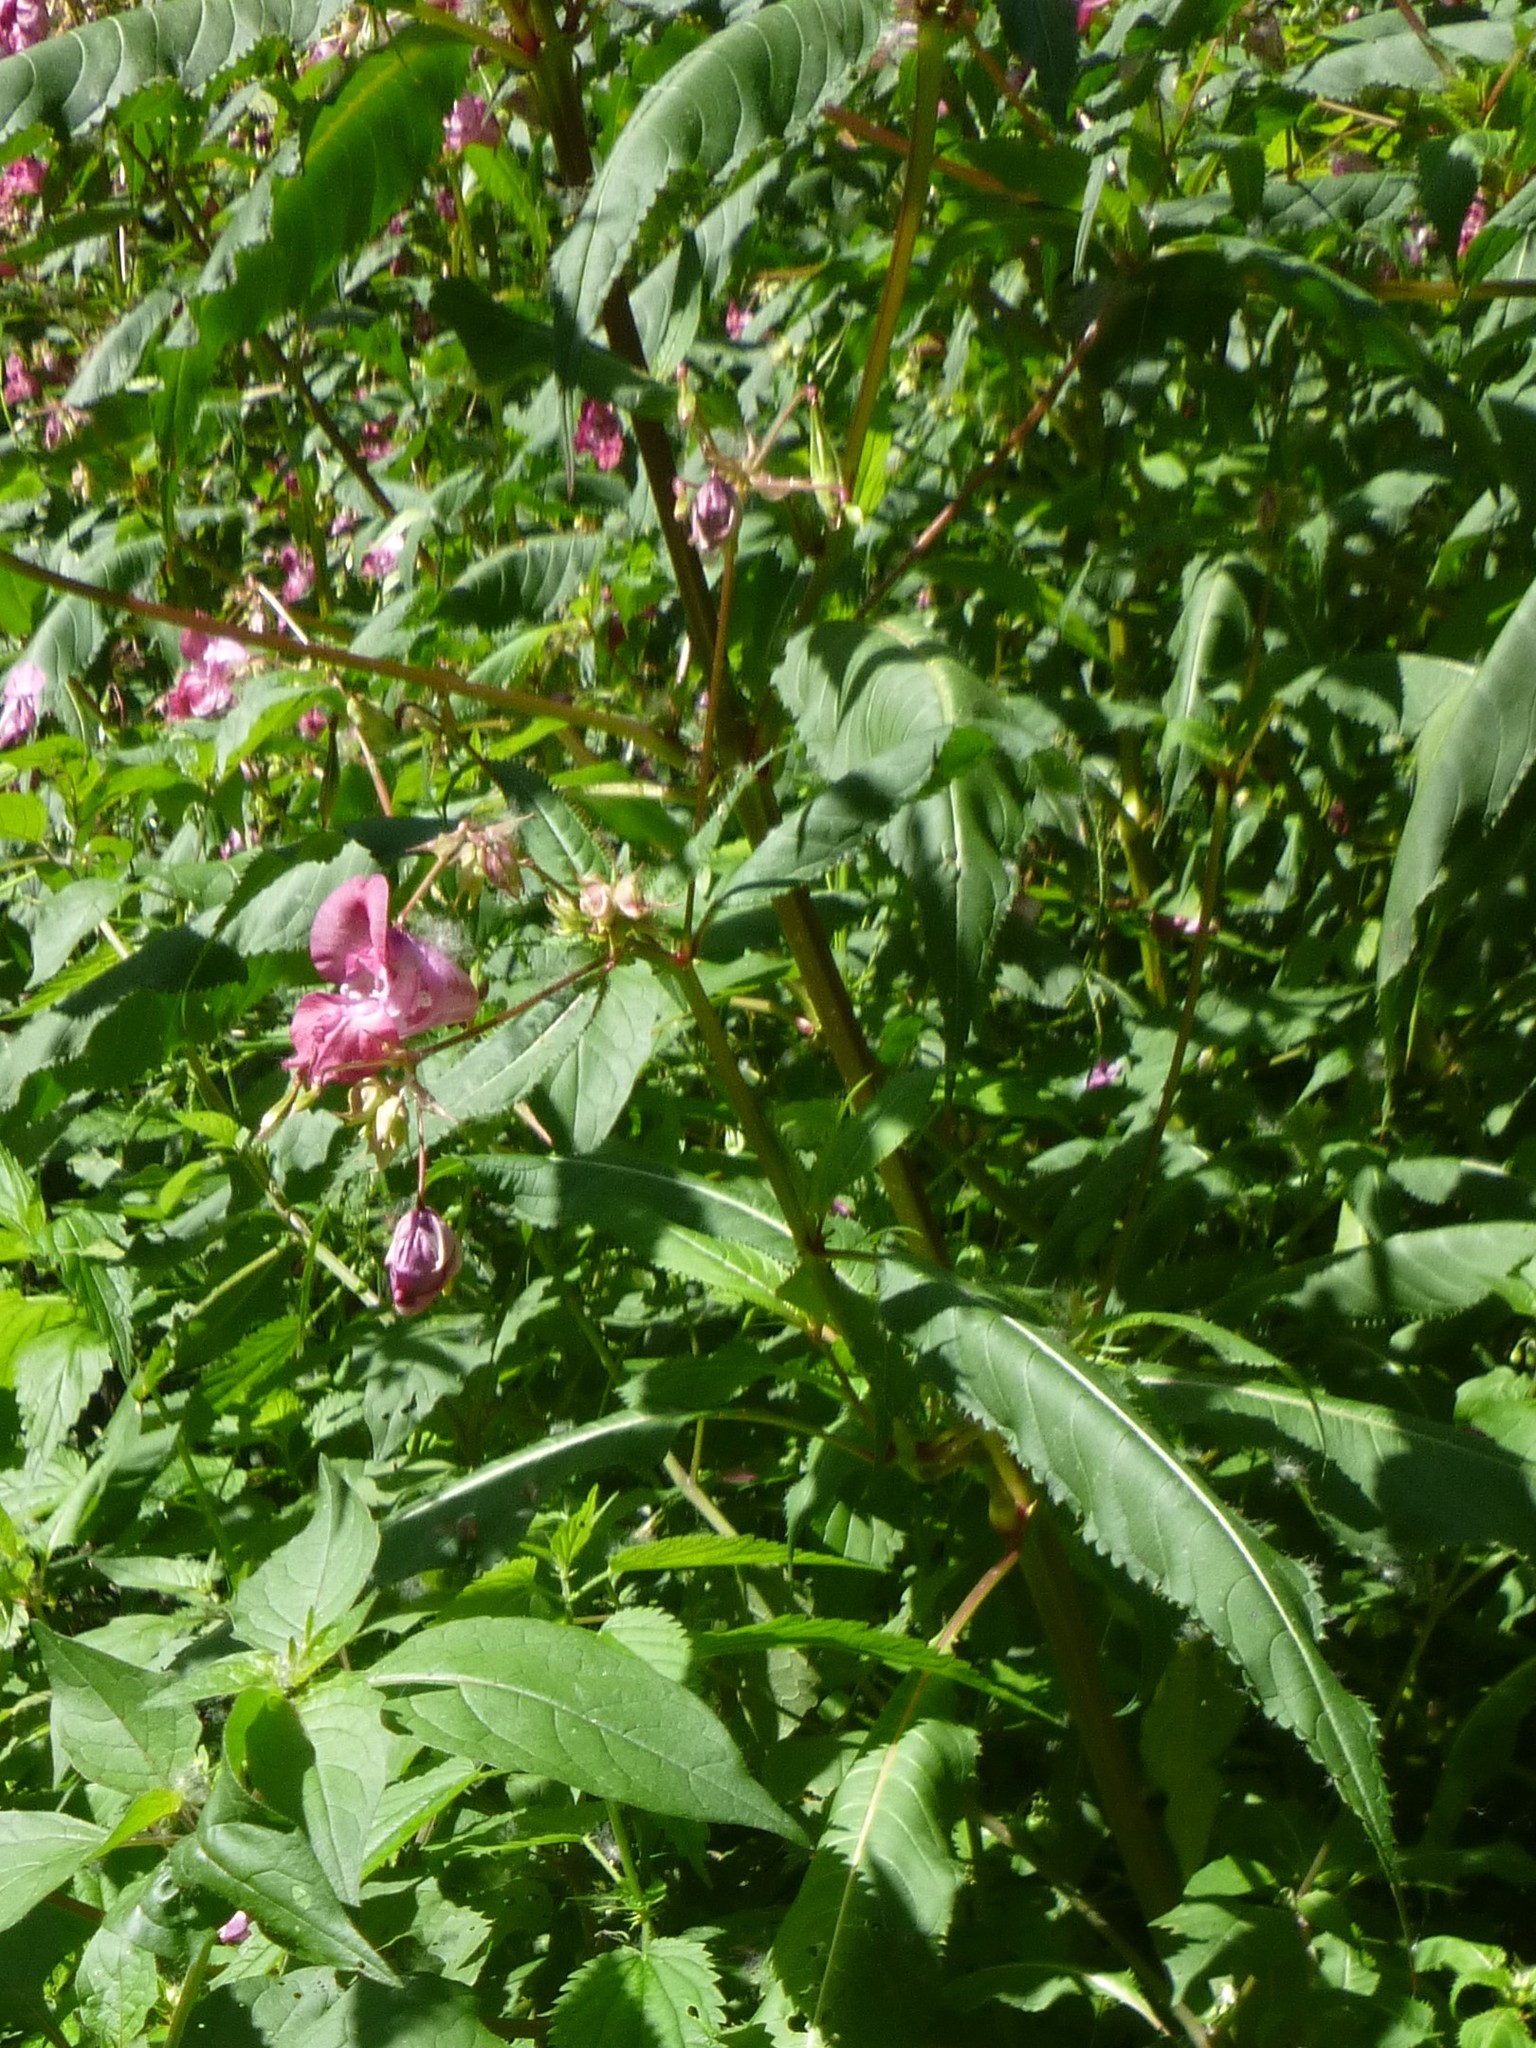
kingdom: Plantae
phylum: Tracheophyta
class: Magnoliopsida
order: Ericales
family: Balsaminaceae
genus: Impatiens
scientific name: Impatiens glandulifera
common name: Himalayan balsam
